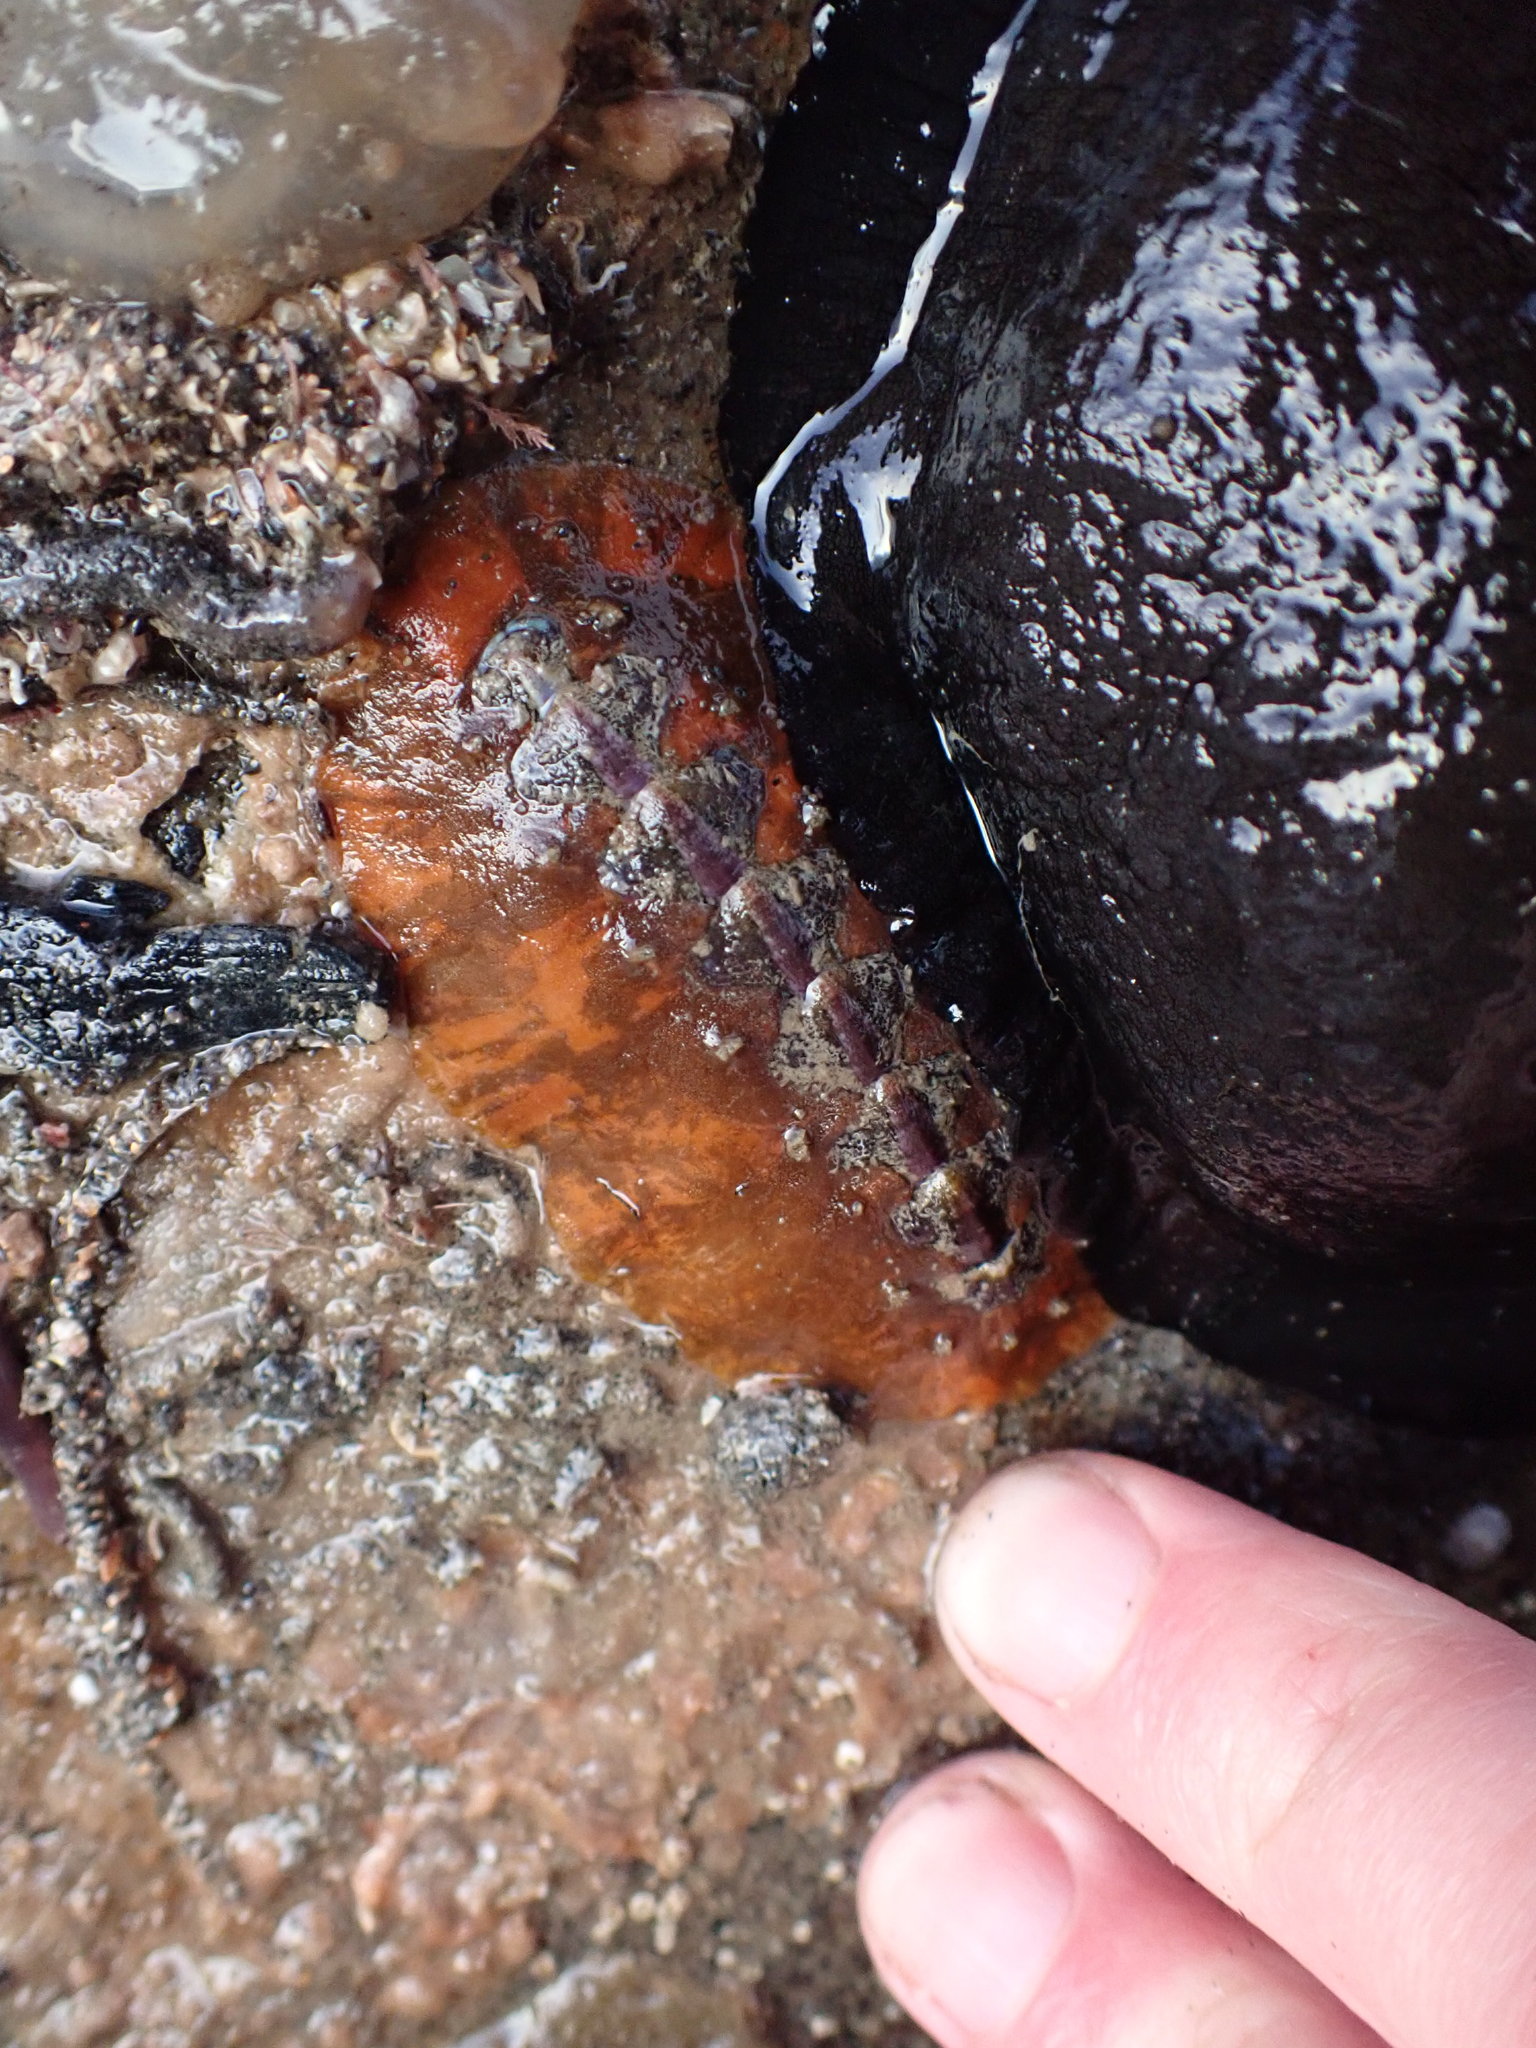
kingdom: Animalia
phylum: Mollusca
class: Polyplacophora
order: Chitonida
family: Acanthochitonidae
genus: Notoplax
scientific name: Notoplax violacea
